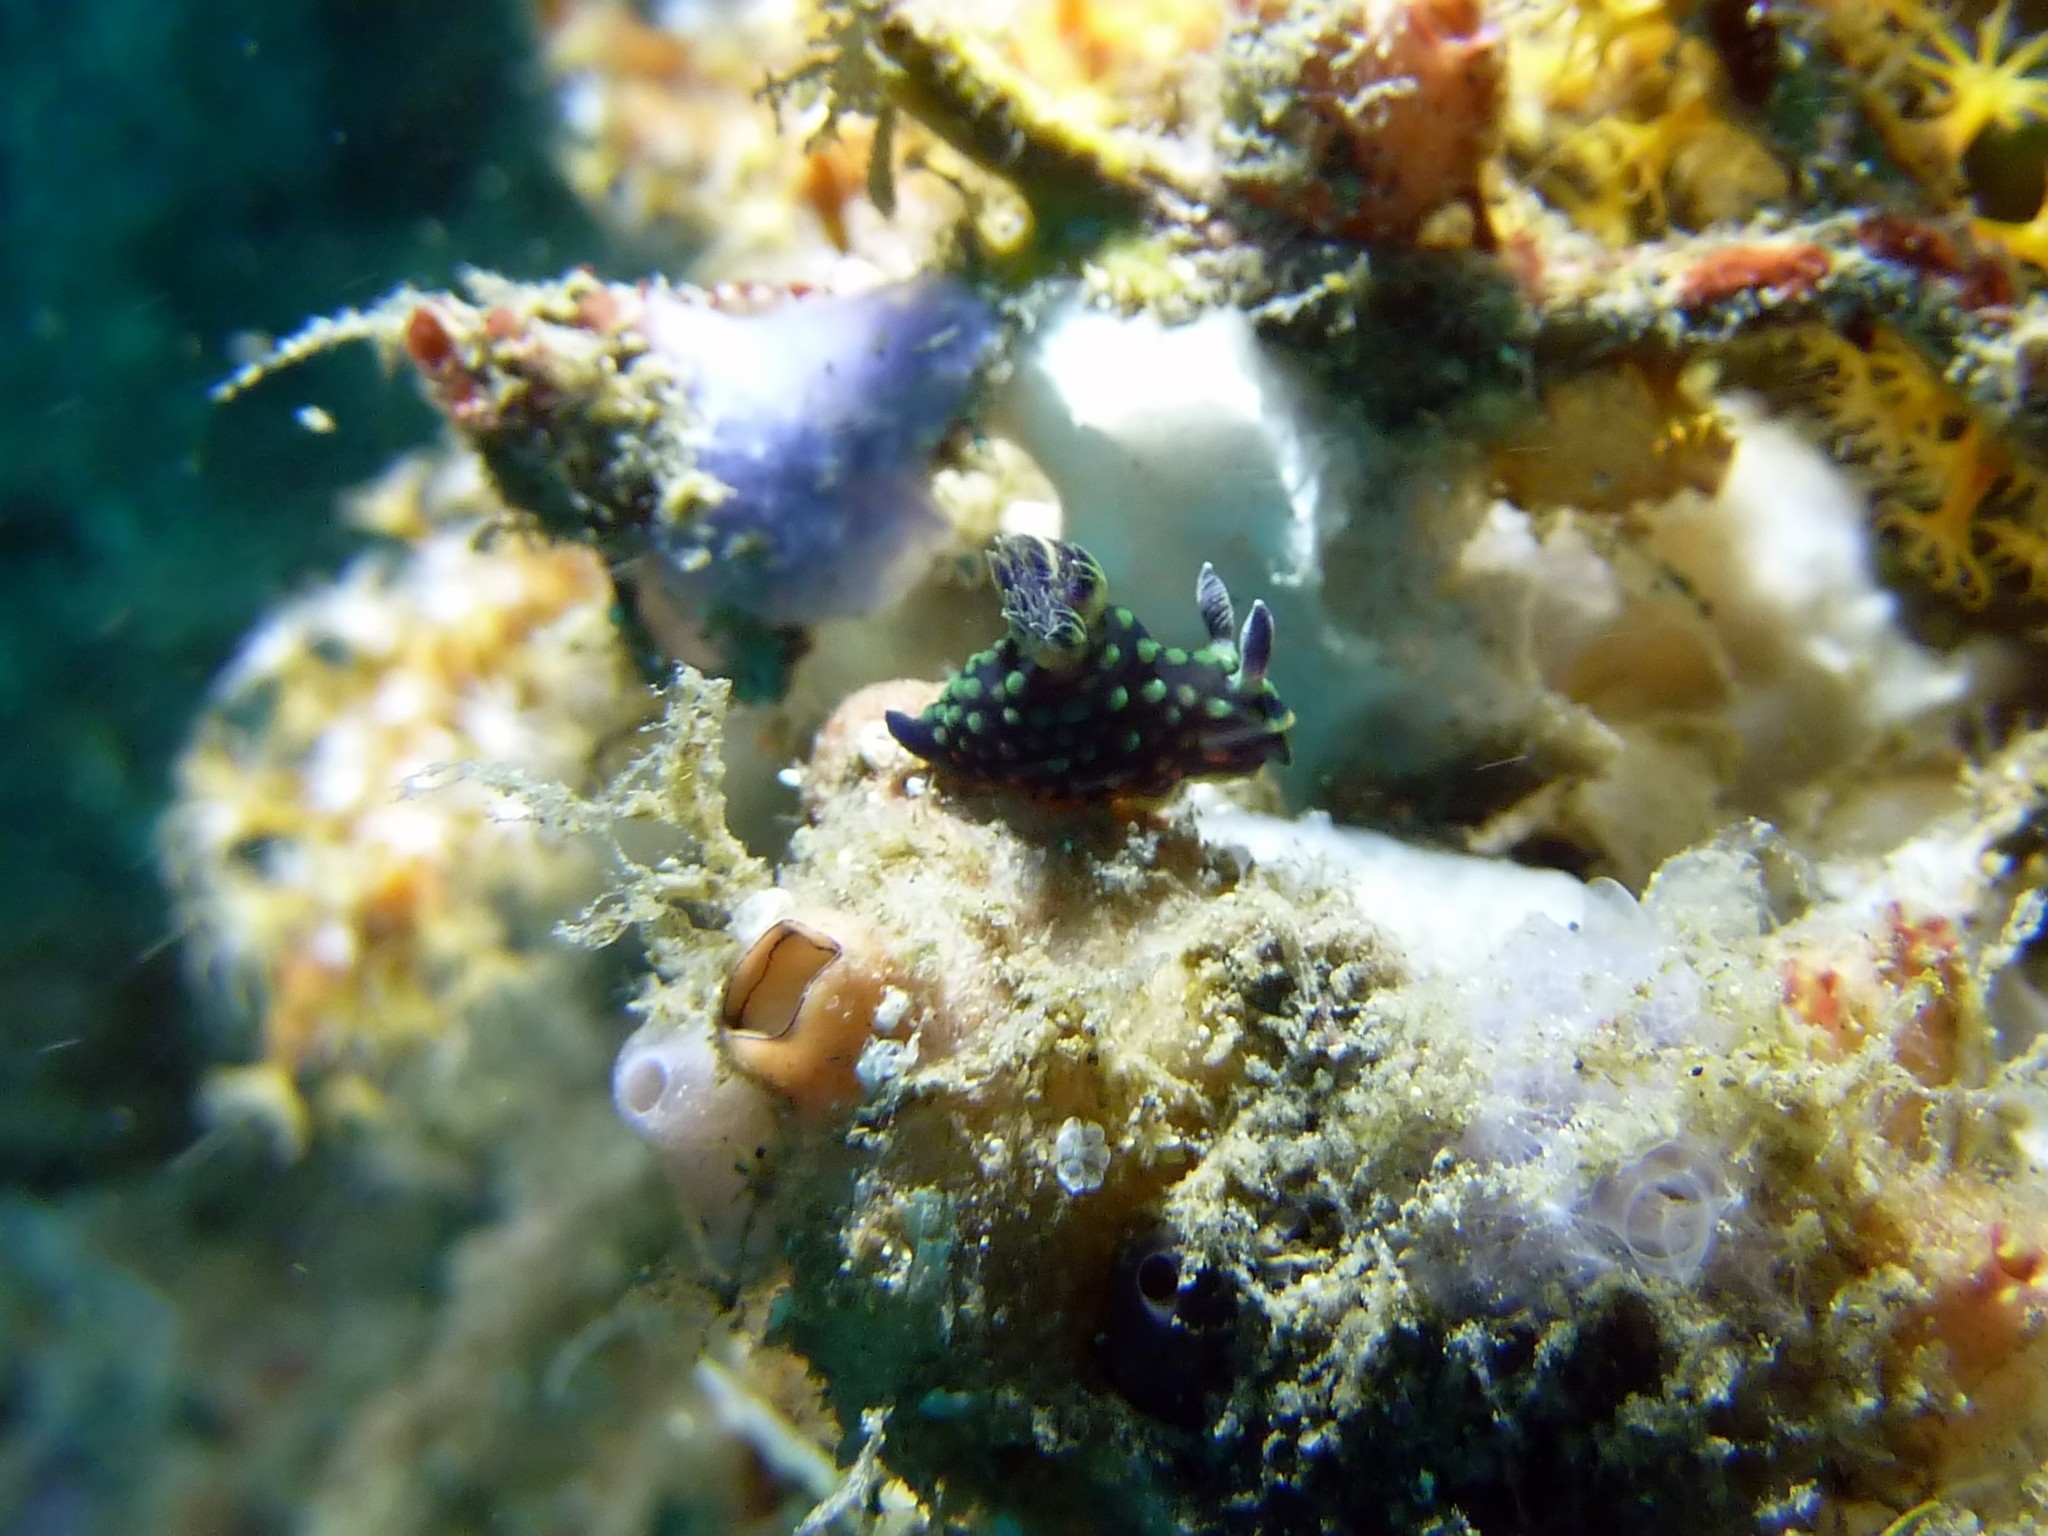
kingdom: Animalia
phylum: Mollusca
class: Gastropoda
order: Nudibranchia
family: Polyceridae
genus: Nembrotha
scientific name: Nembrotha cristata
